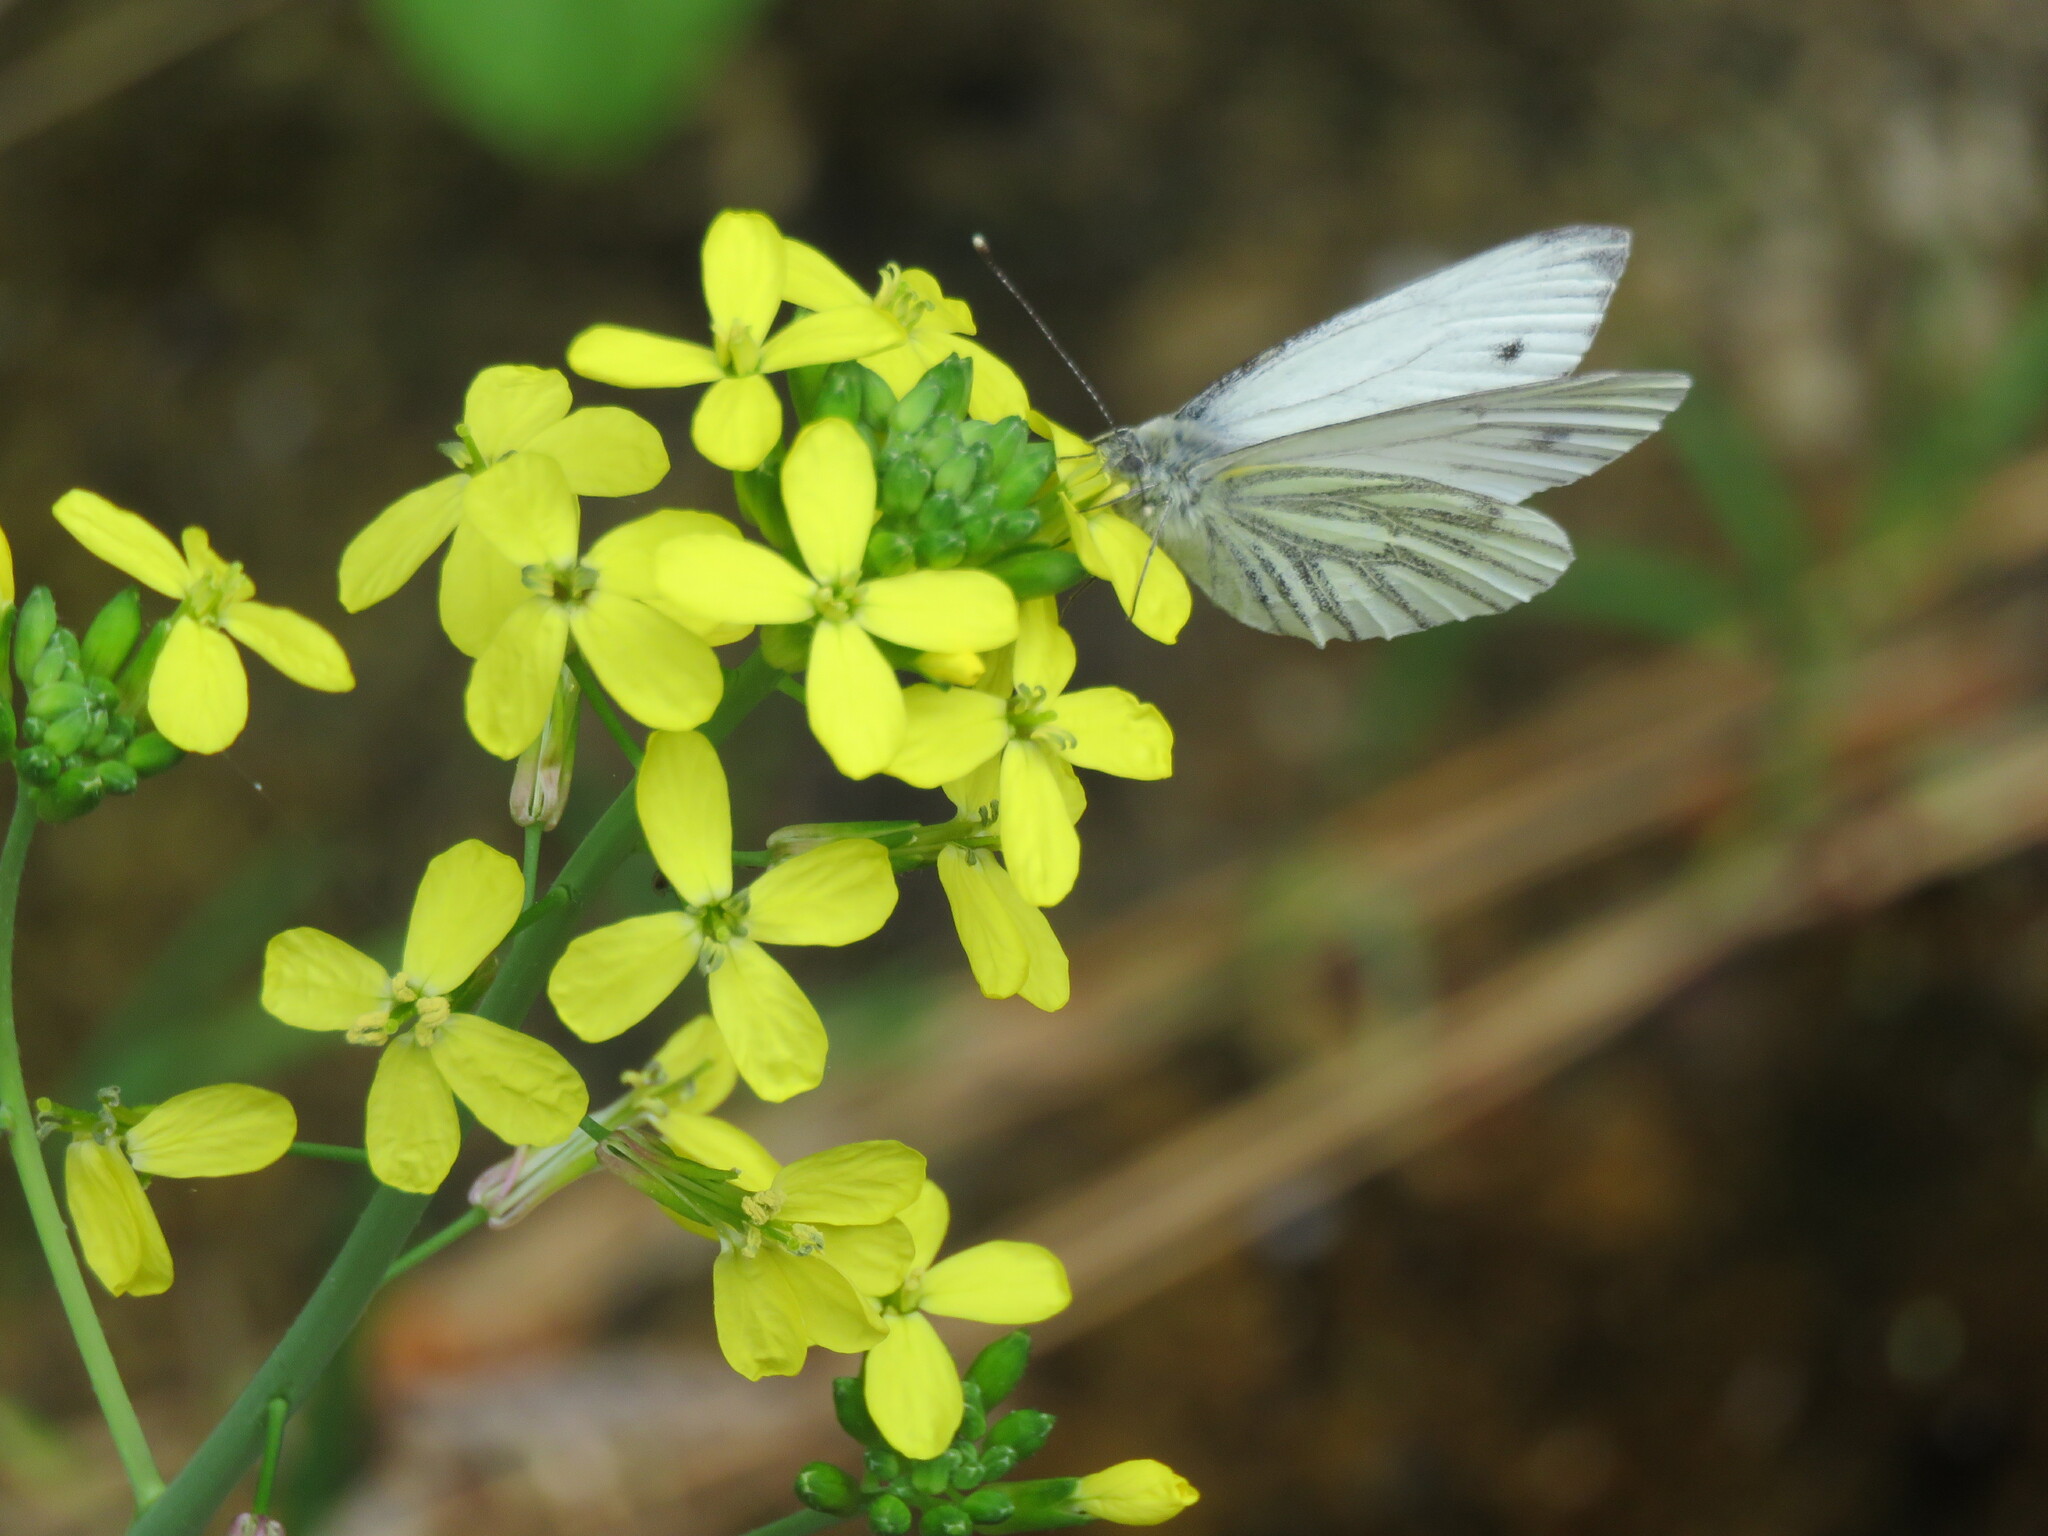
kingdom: Animalia
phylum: Arthropoda
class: Insecta
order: Lepidoptera
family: Pieridae
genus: Pieris
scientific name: Pieris napi
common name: Green-veined white
